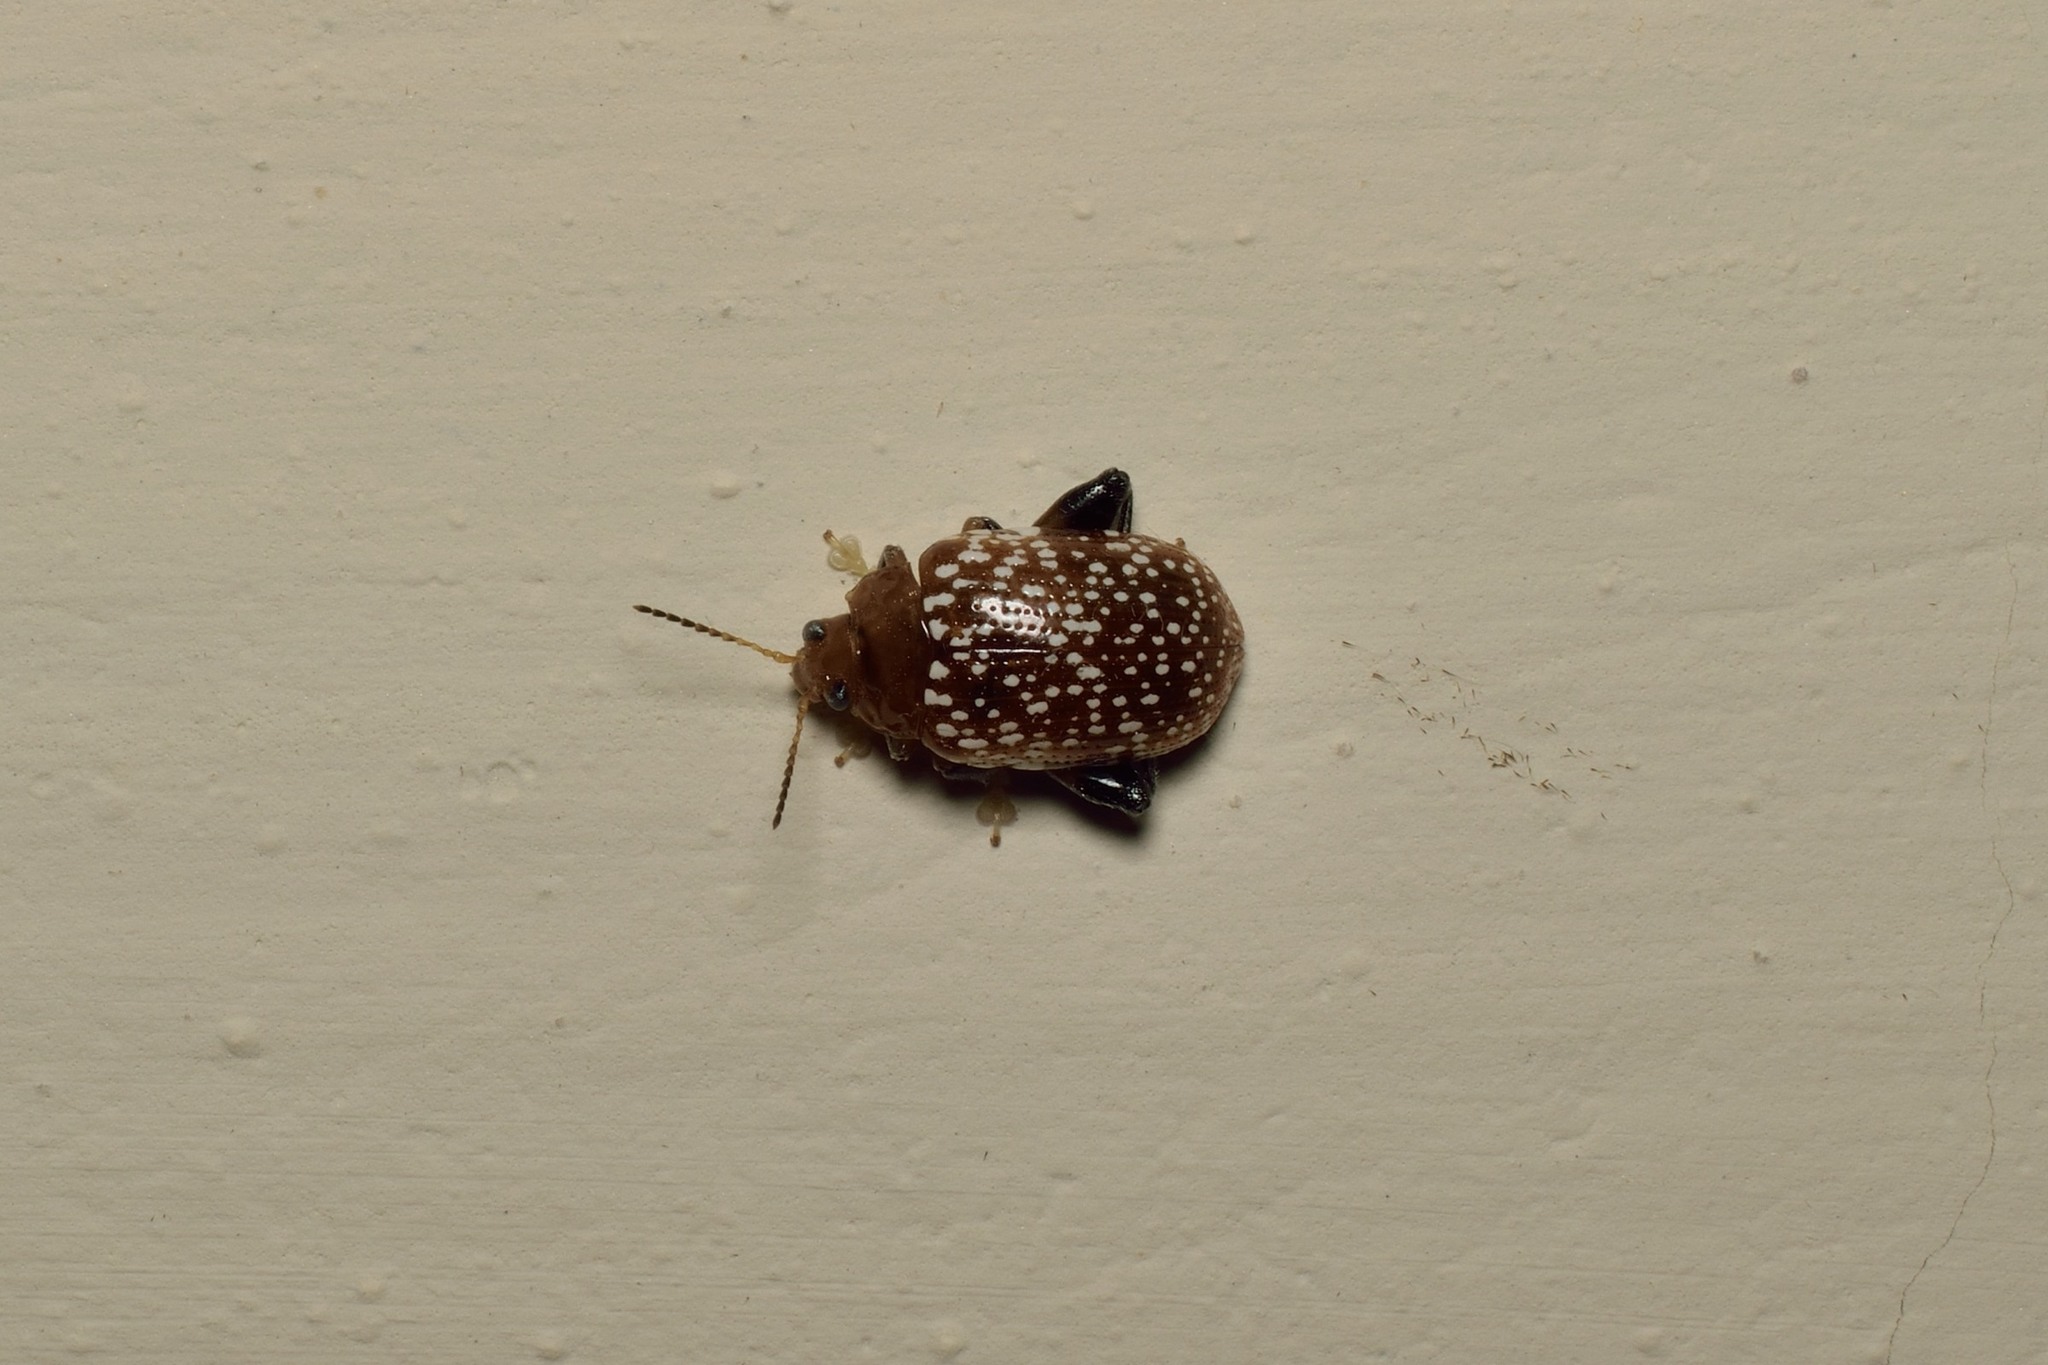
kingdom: Animalia
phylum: Arthropoda
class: Insecta
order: Coleoptera
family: Chrysomelidae
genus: Asiophrida
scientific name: Asiophrida
